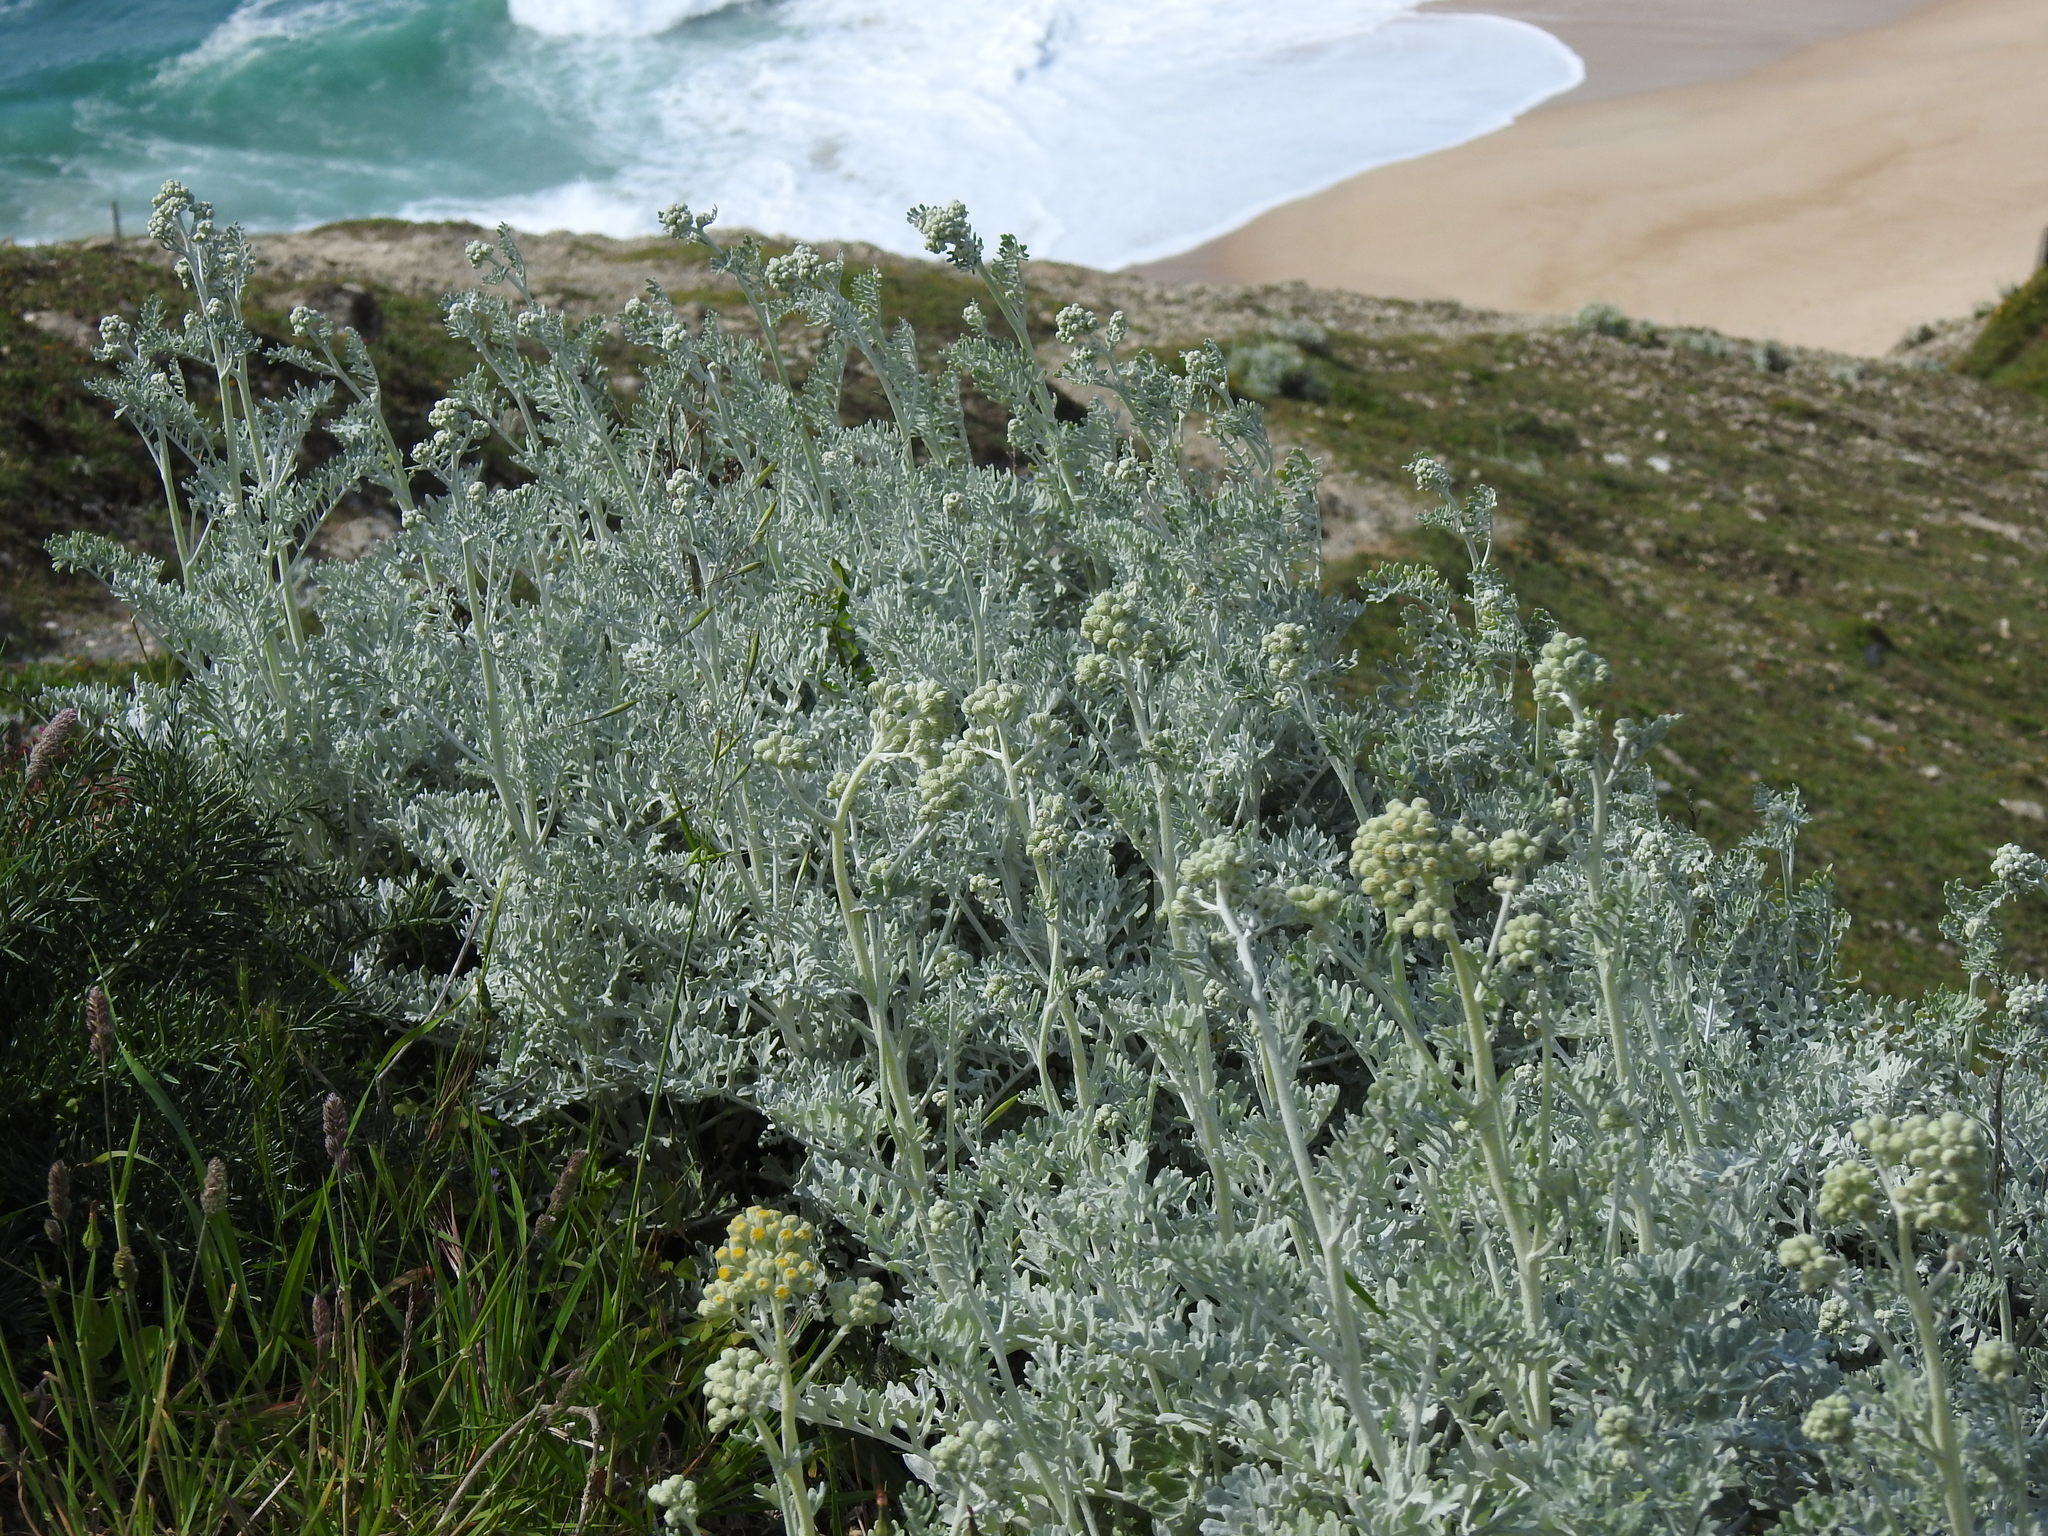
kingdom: Plantae
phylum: Tracheophyta
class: Magnoliopsida
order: Asterales
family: Asteraceae
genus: Jacobaea
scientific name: Jacobaea maritima
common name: Silver ragwort
